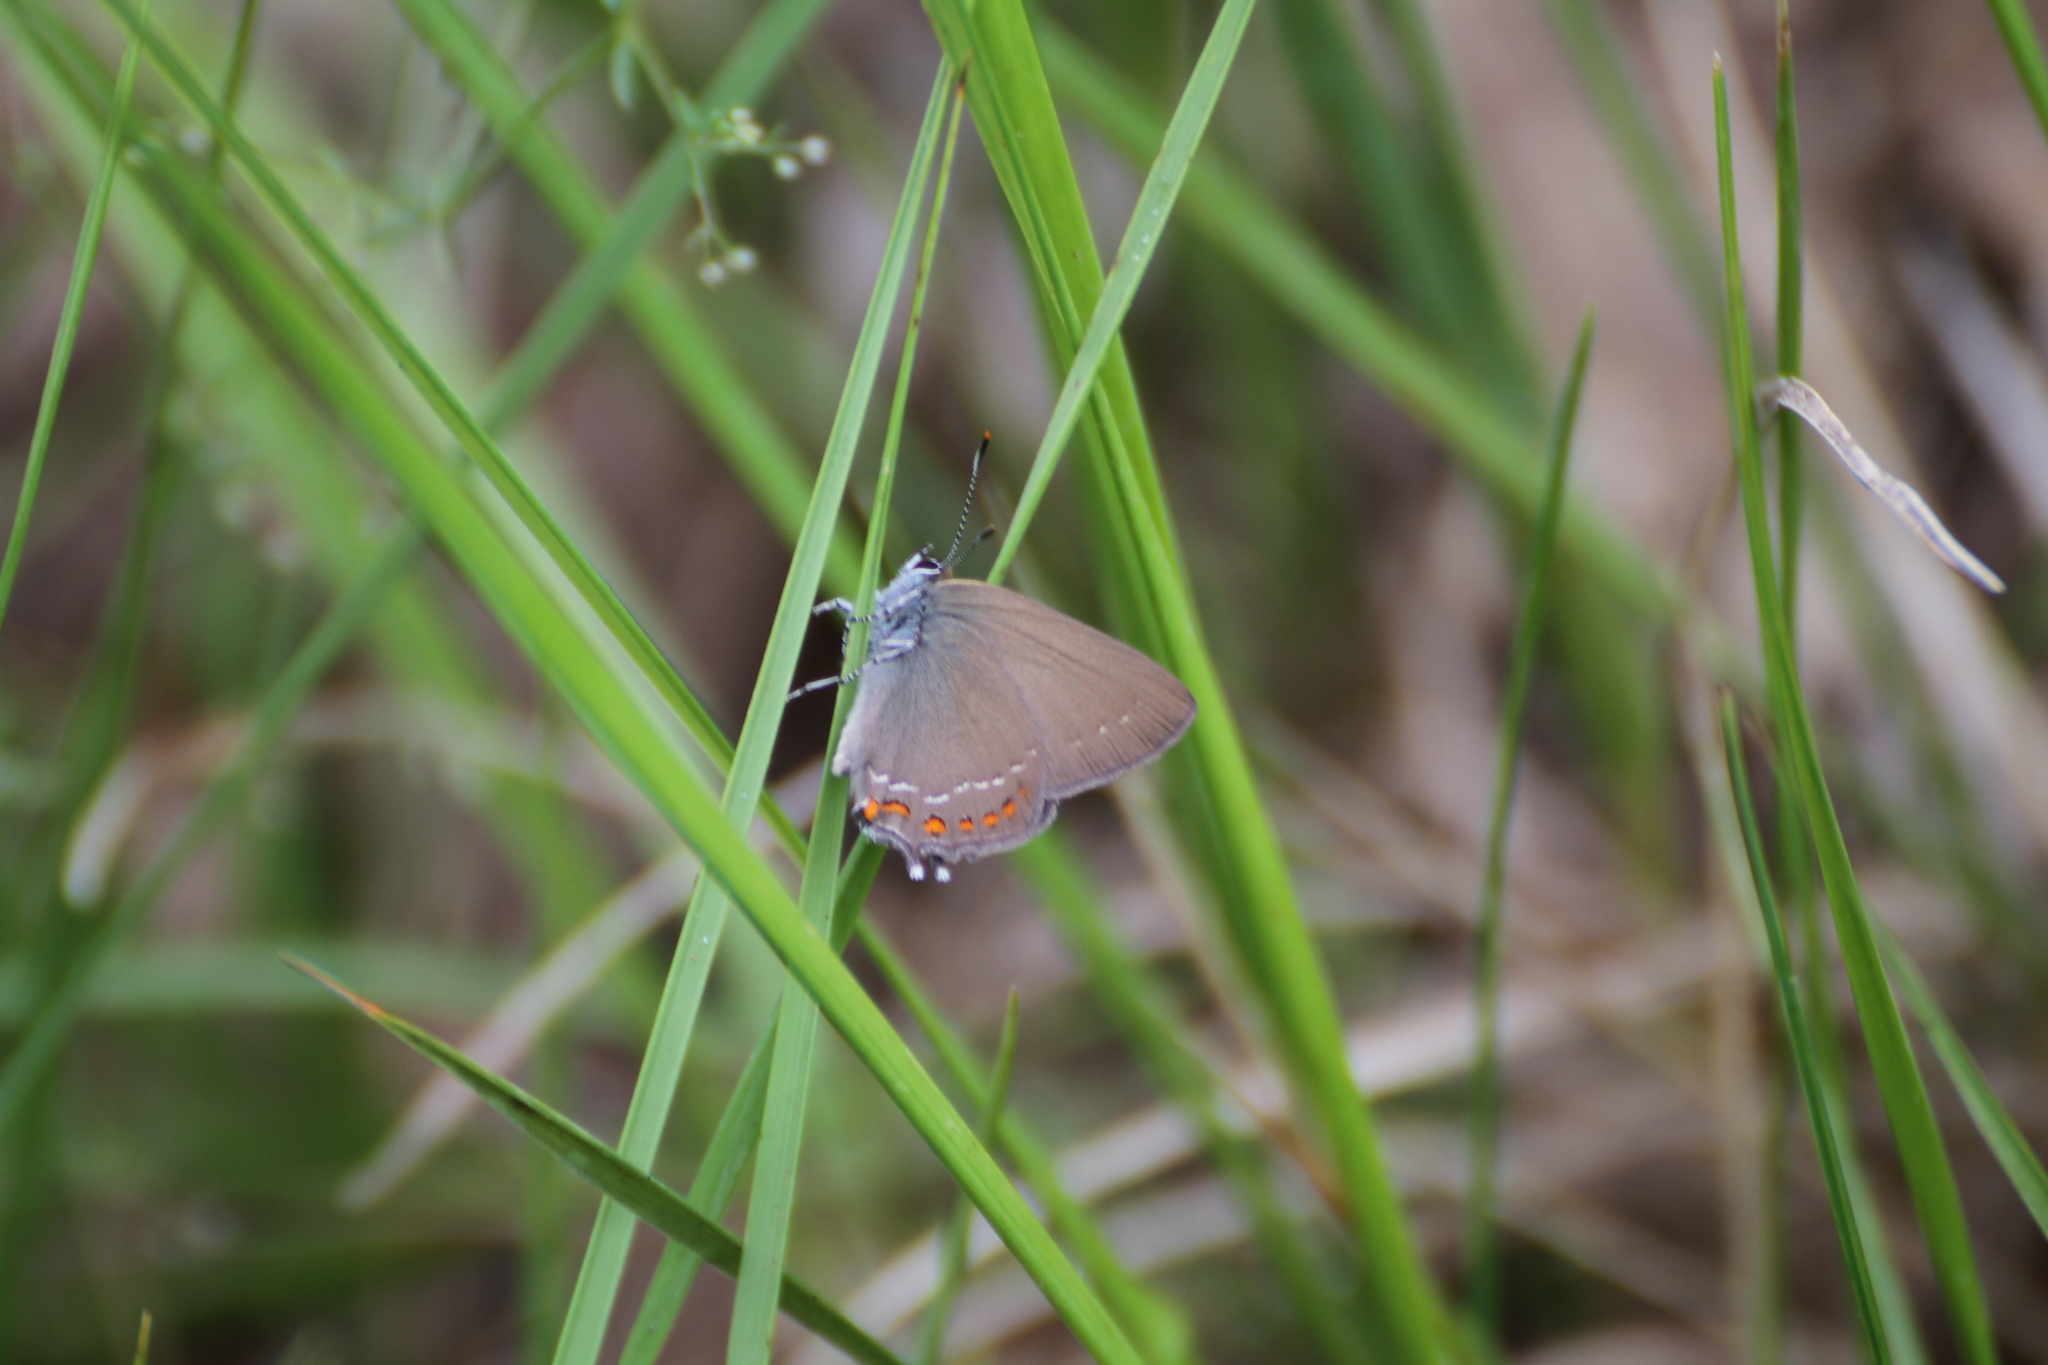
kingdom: Animalia
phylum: Arthropoda
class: Insecta
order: Lepidoptera
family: Lycaenidae
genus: Fixsenia
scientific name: Fixsenia esculi
